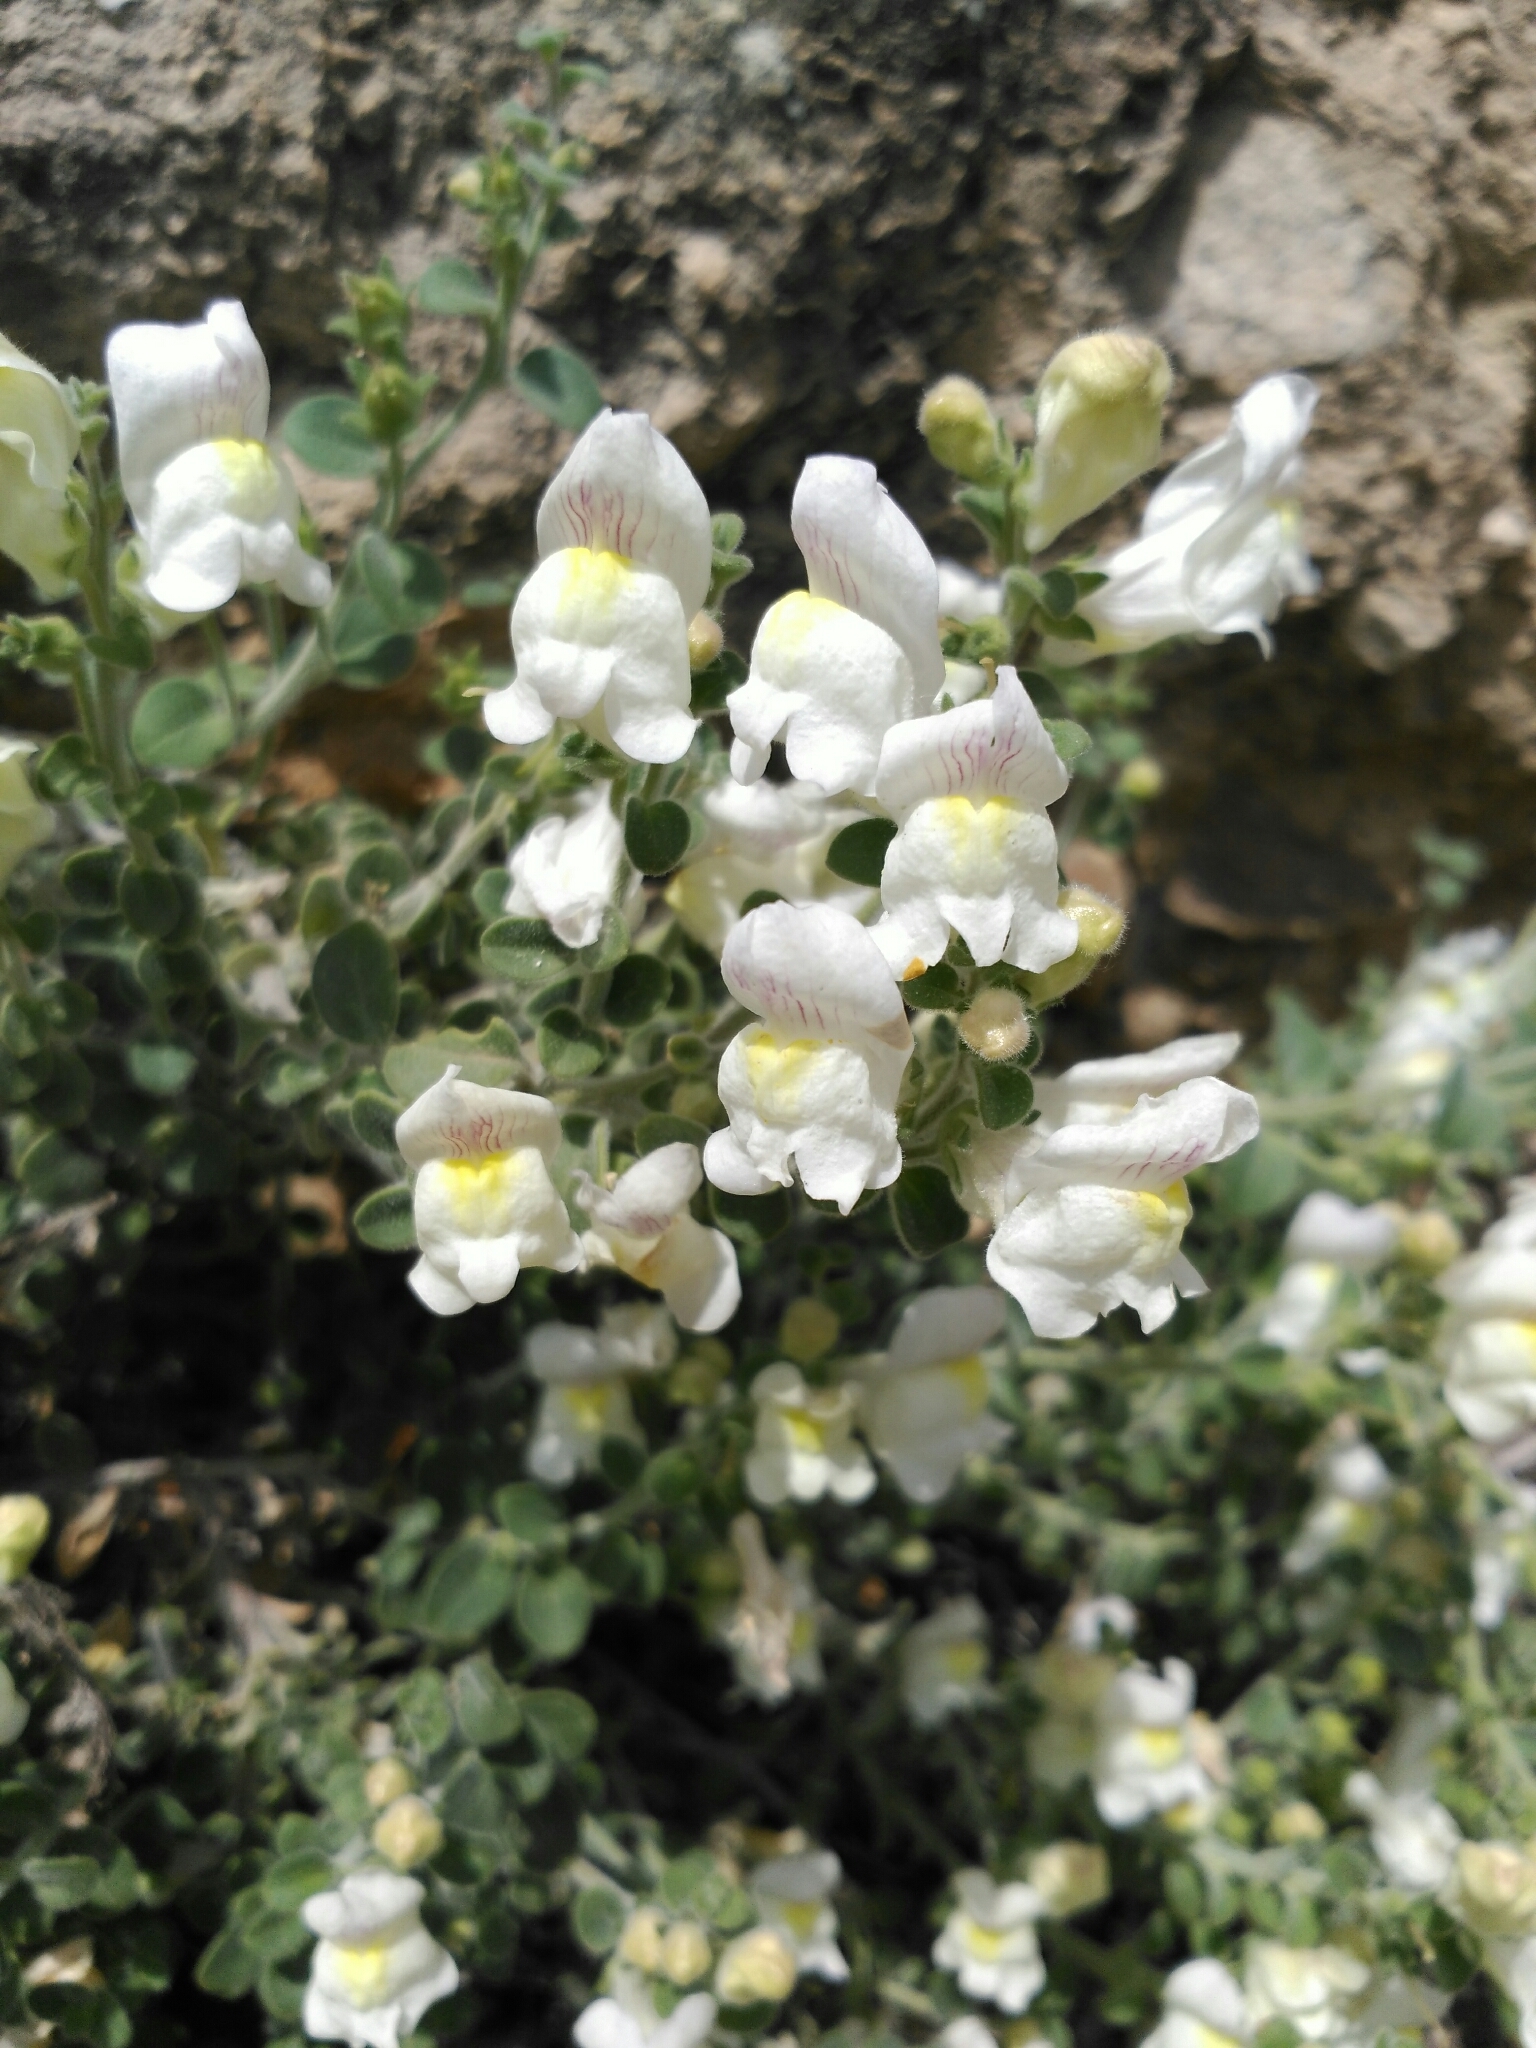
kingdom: Plantae
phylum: Tracheophyta
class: Magnoliopsida
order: Lamiales
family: Plantaginaceae
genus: Antirrhinum
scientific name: Antirrhinum molle
